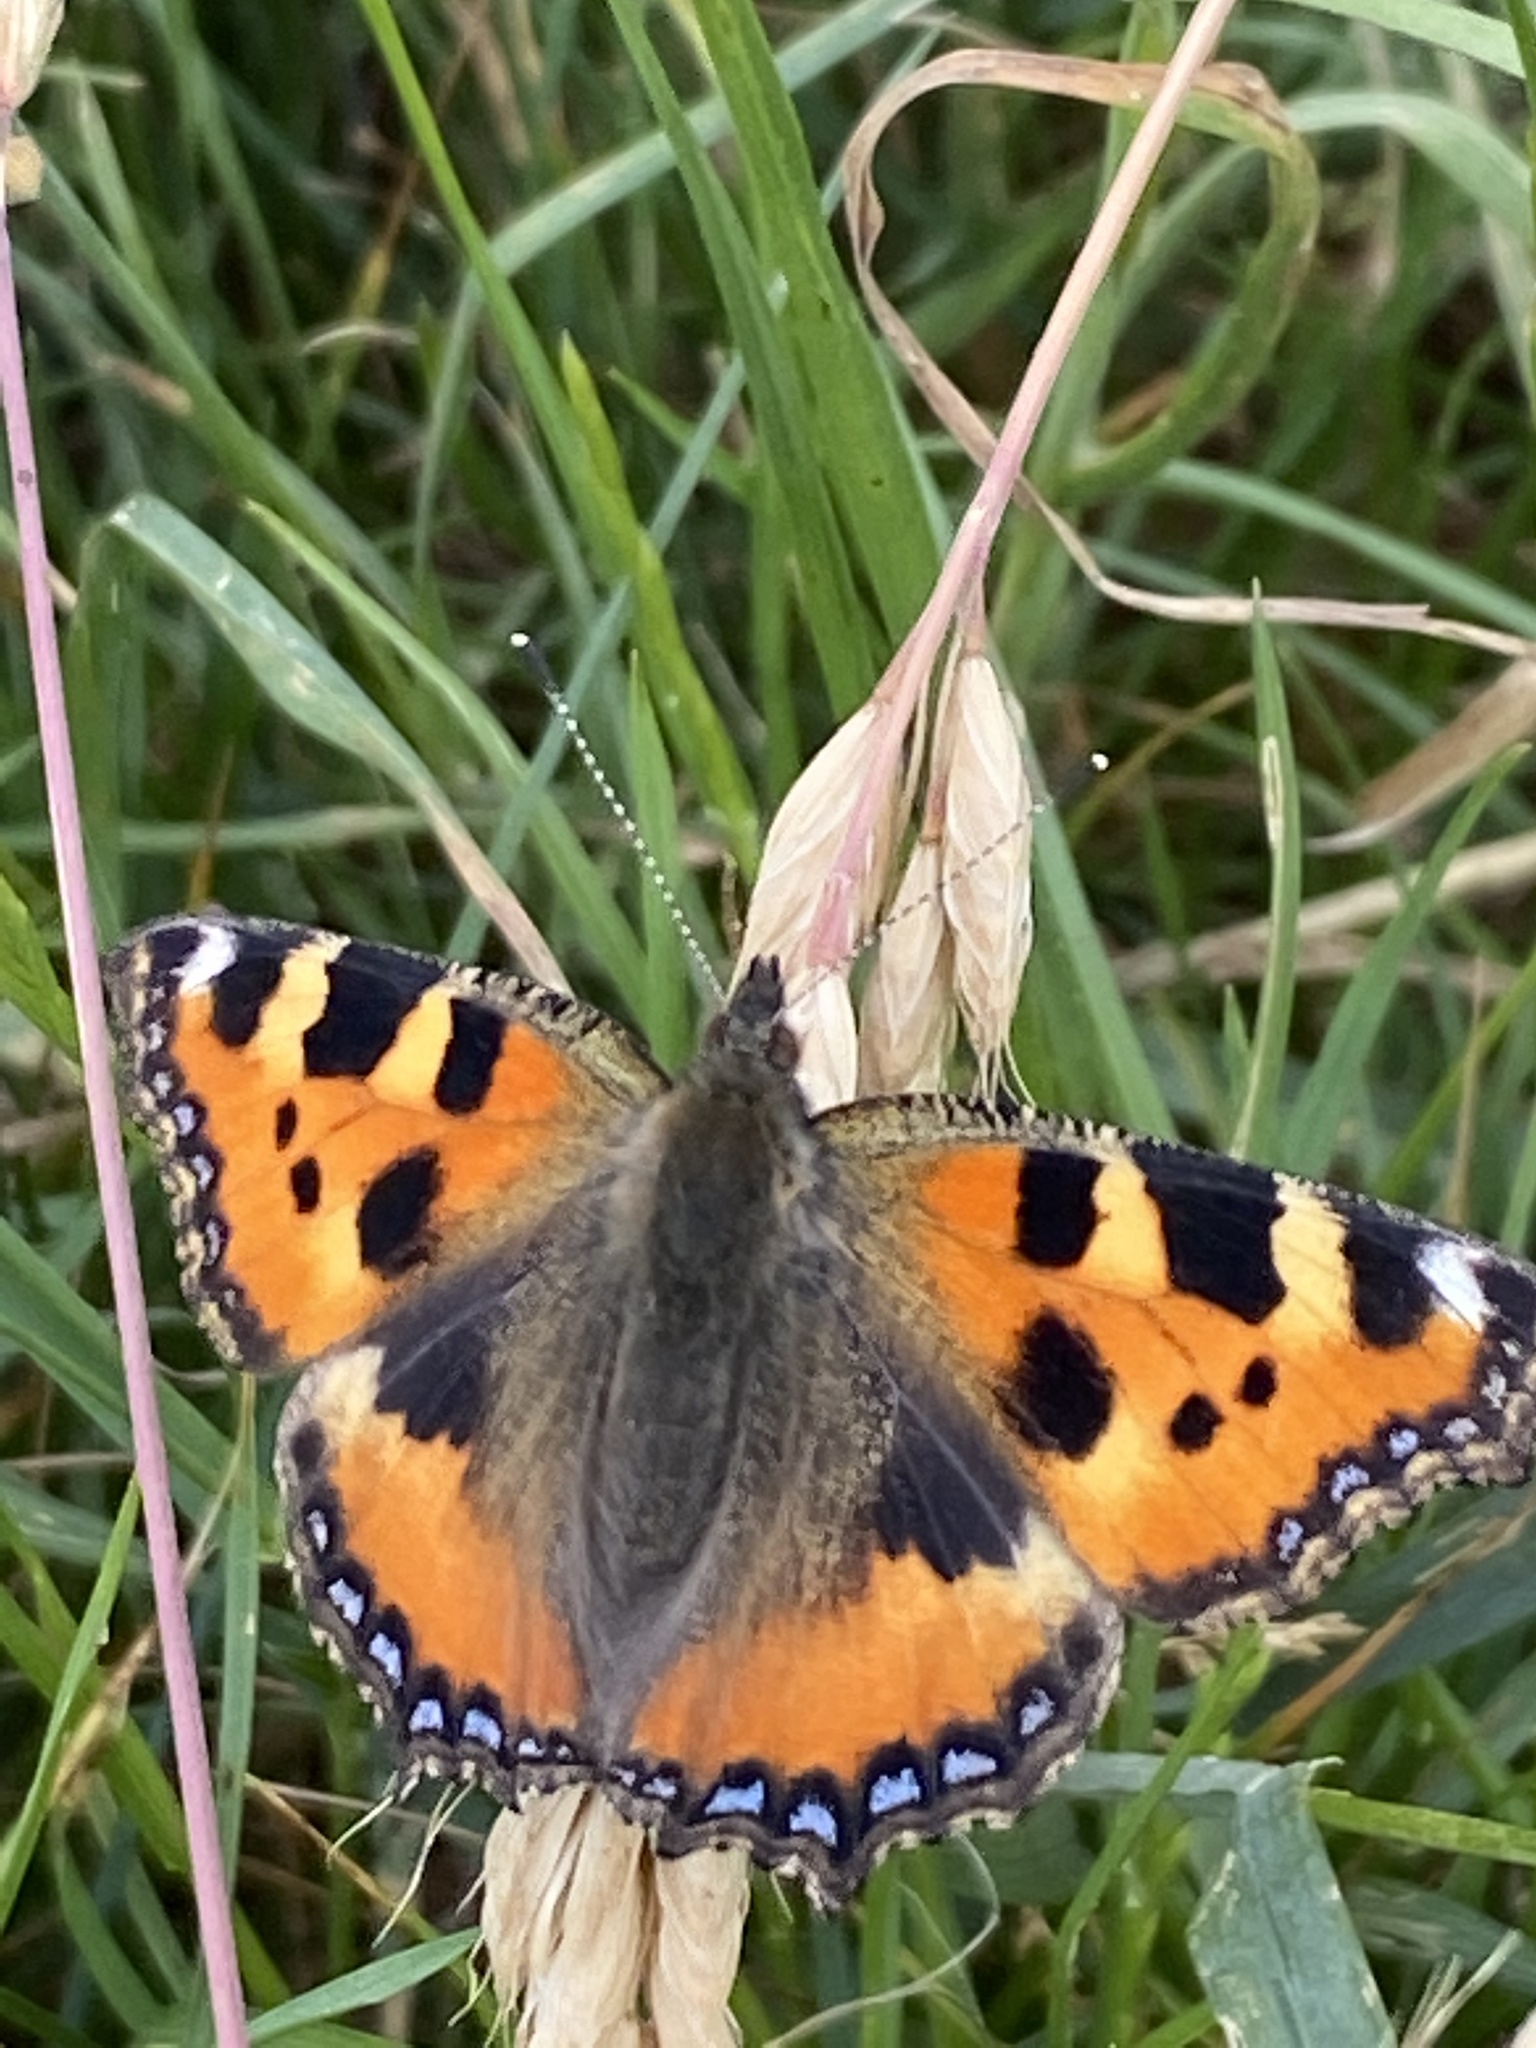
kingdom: Animalia
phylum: Arthropoda
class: Insecta
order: Lepidoptera
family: Nymphalidae
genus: Aglais
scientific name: Aglais urticae
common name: Small tortoiseshell
